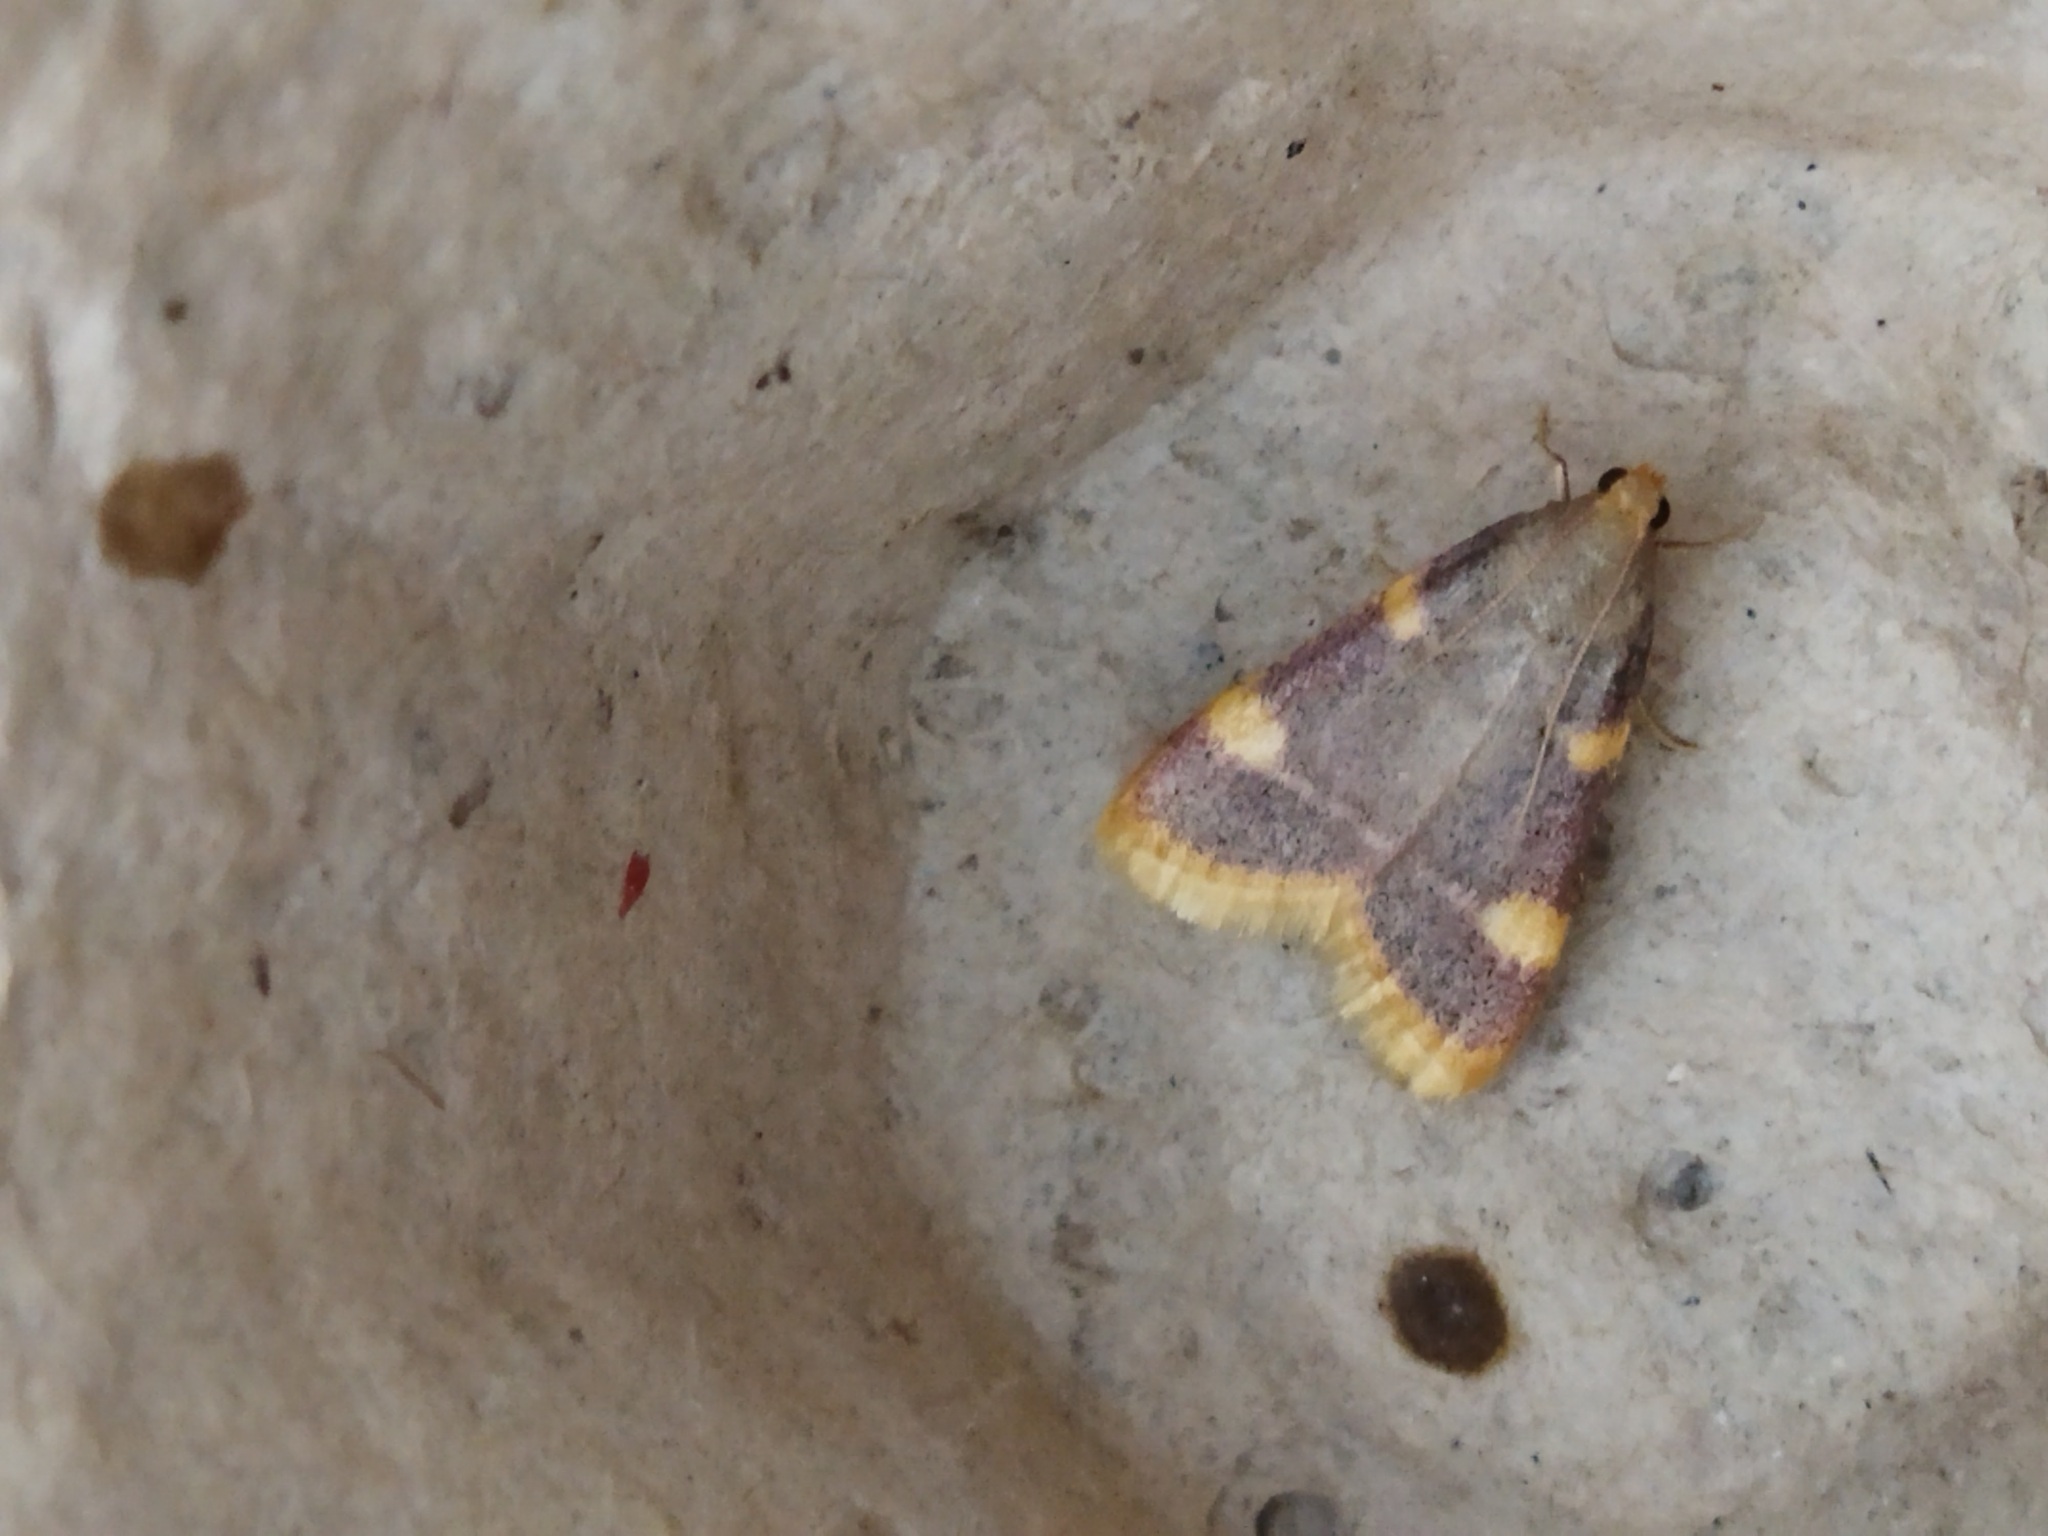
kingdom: Animalia
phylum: Arthropoda
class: Insecta
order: Lepidoptera
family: Pyralidae
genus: Hypsopygia
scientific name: Hypsopygia costalis
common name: Gold triangle
